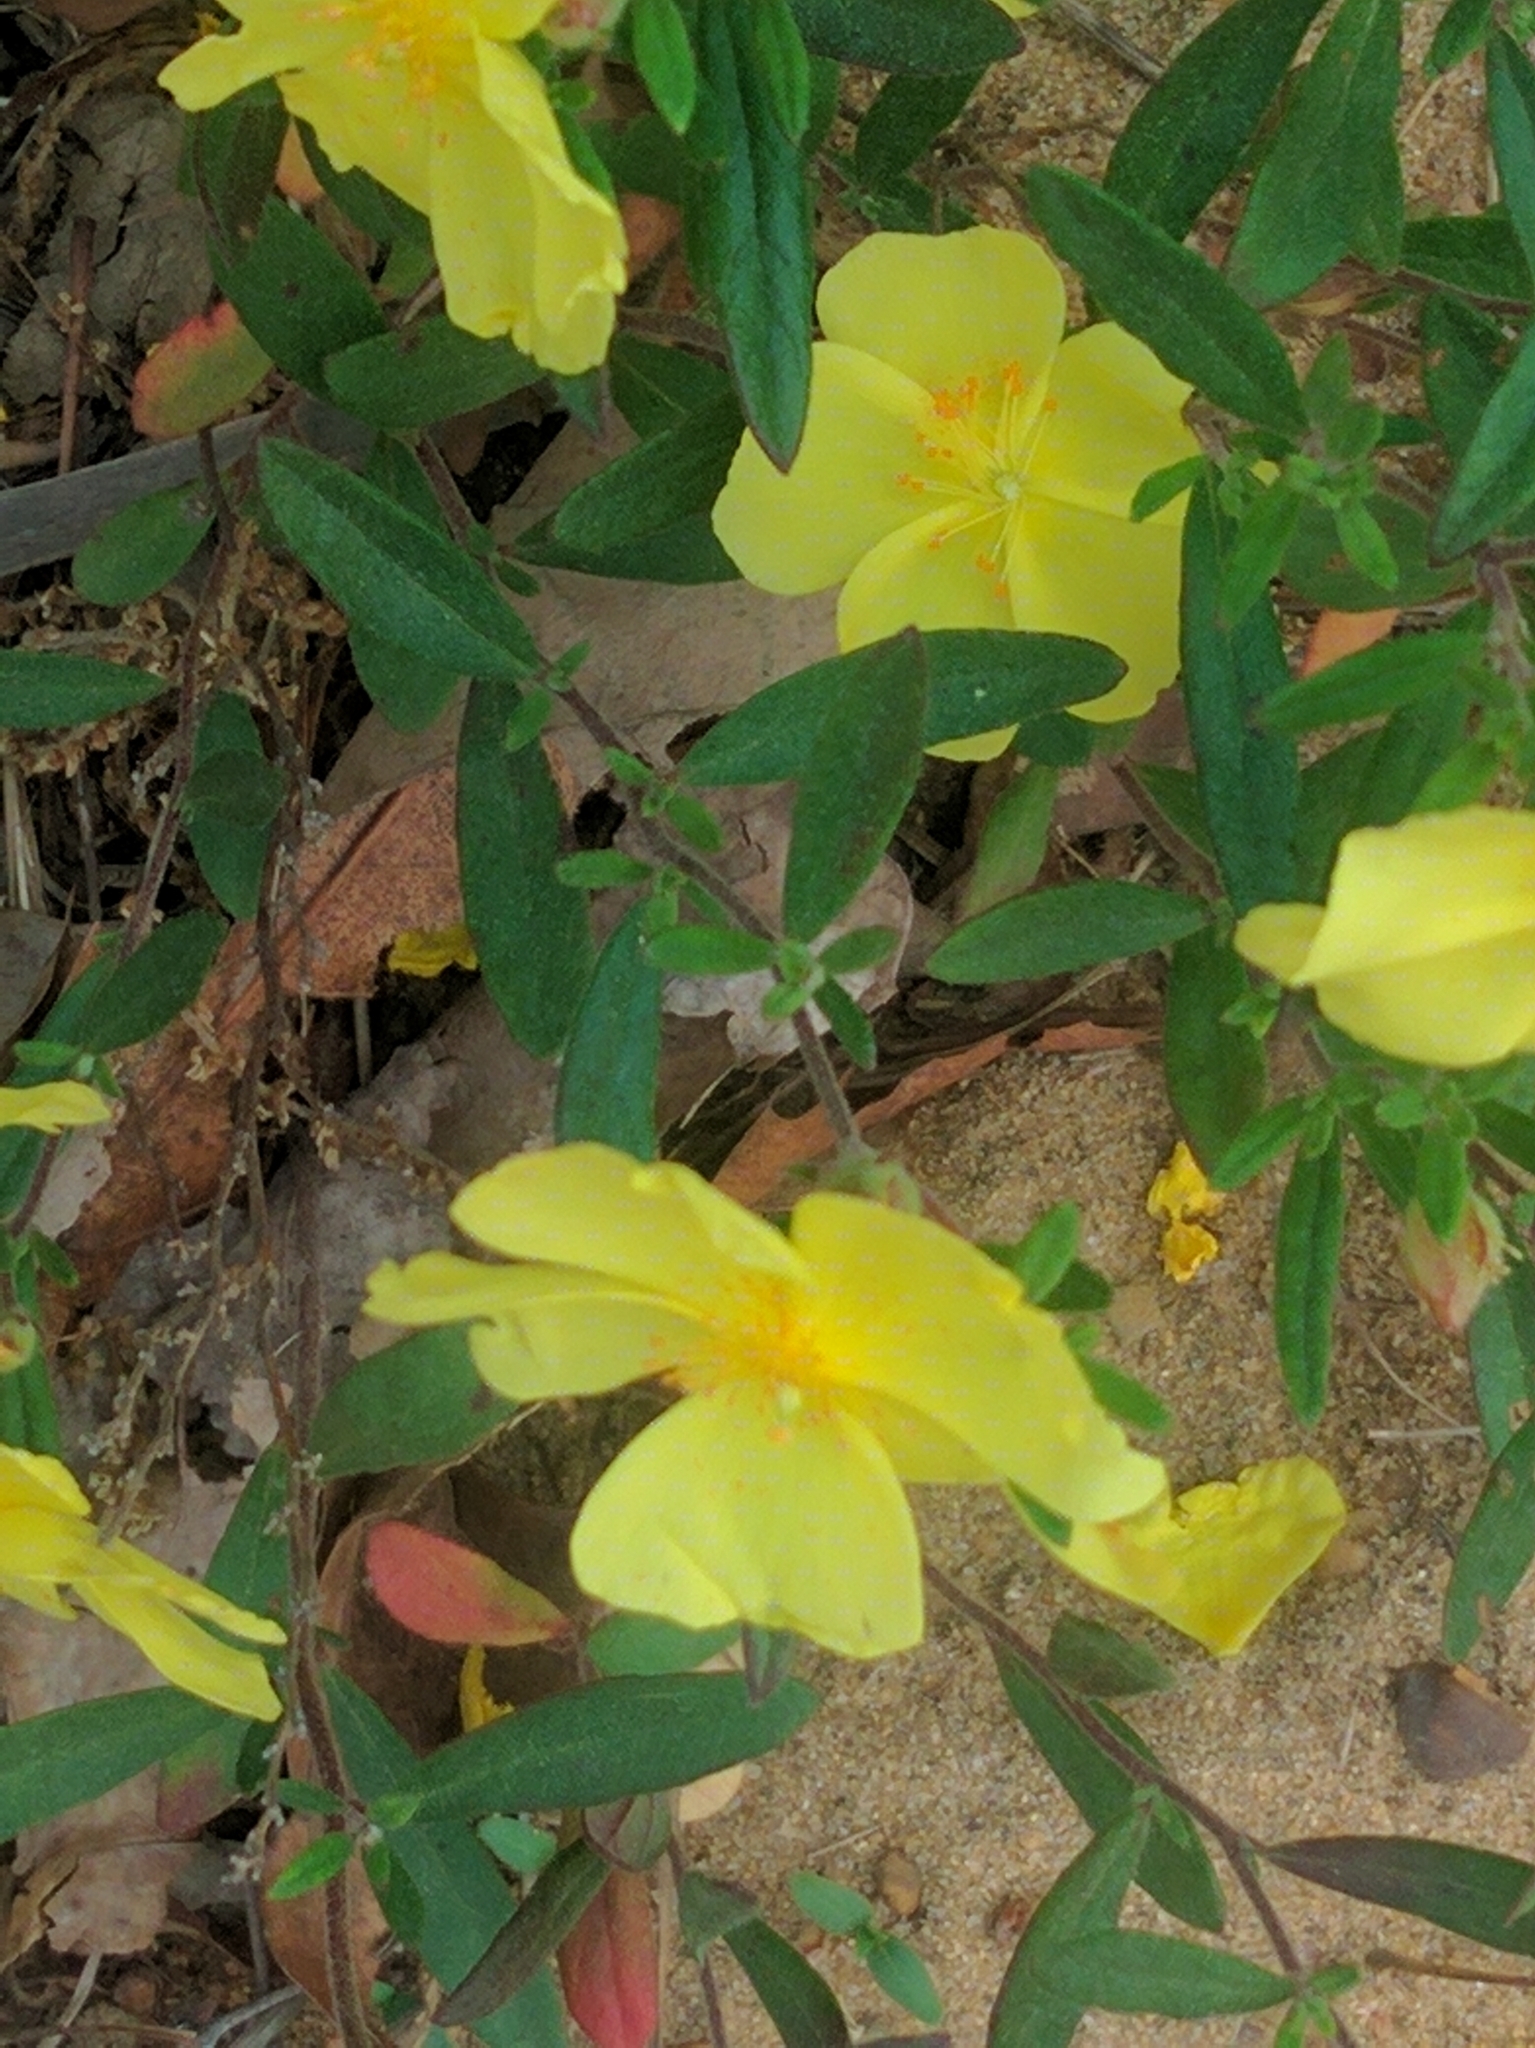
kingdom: Plantae
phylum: Tracheophyta
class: Magnoliopsida
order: Malvales
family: Cistaceae
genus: Crocanthemum
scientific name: Crocanthemum canadense
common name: Canada frostweed
